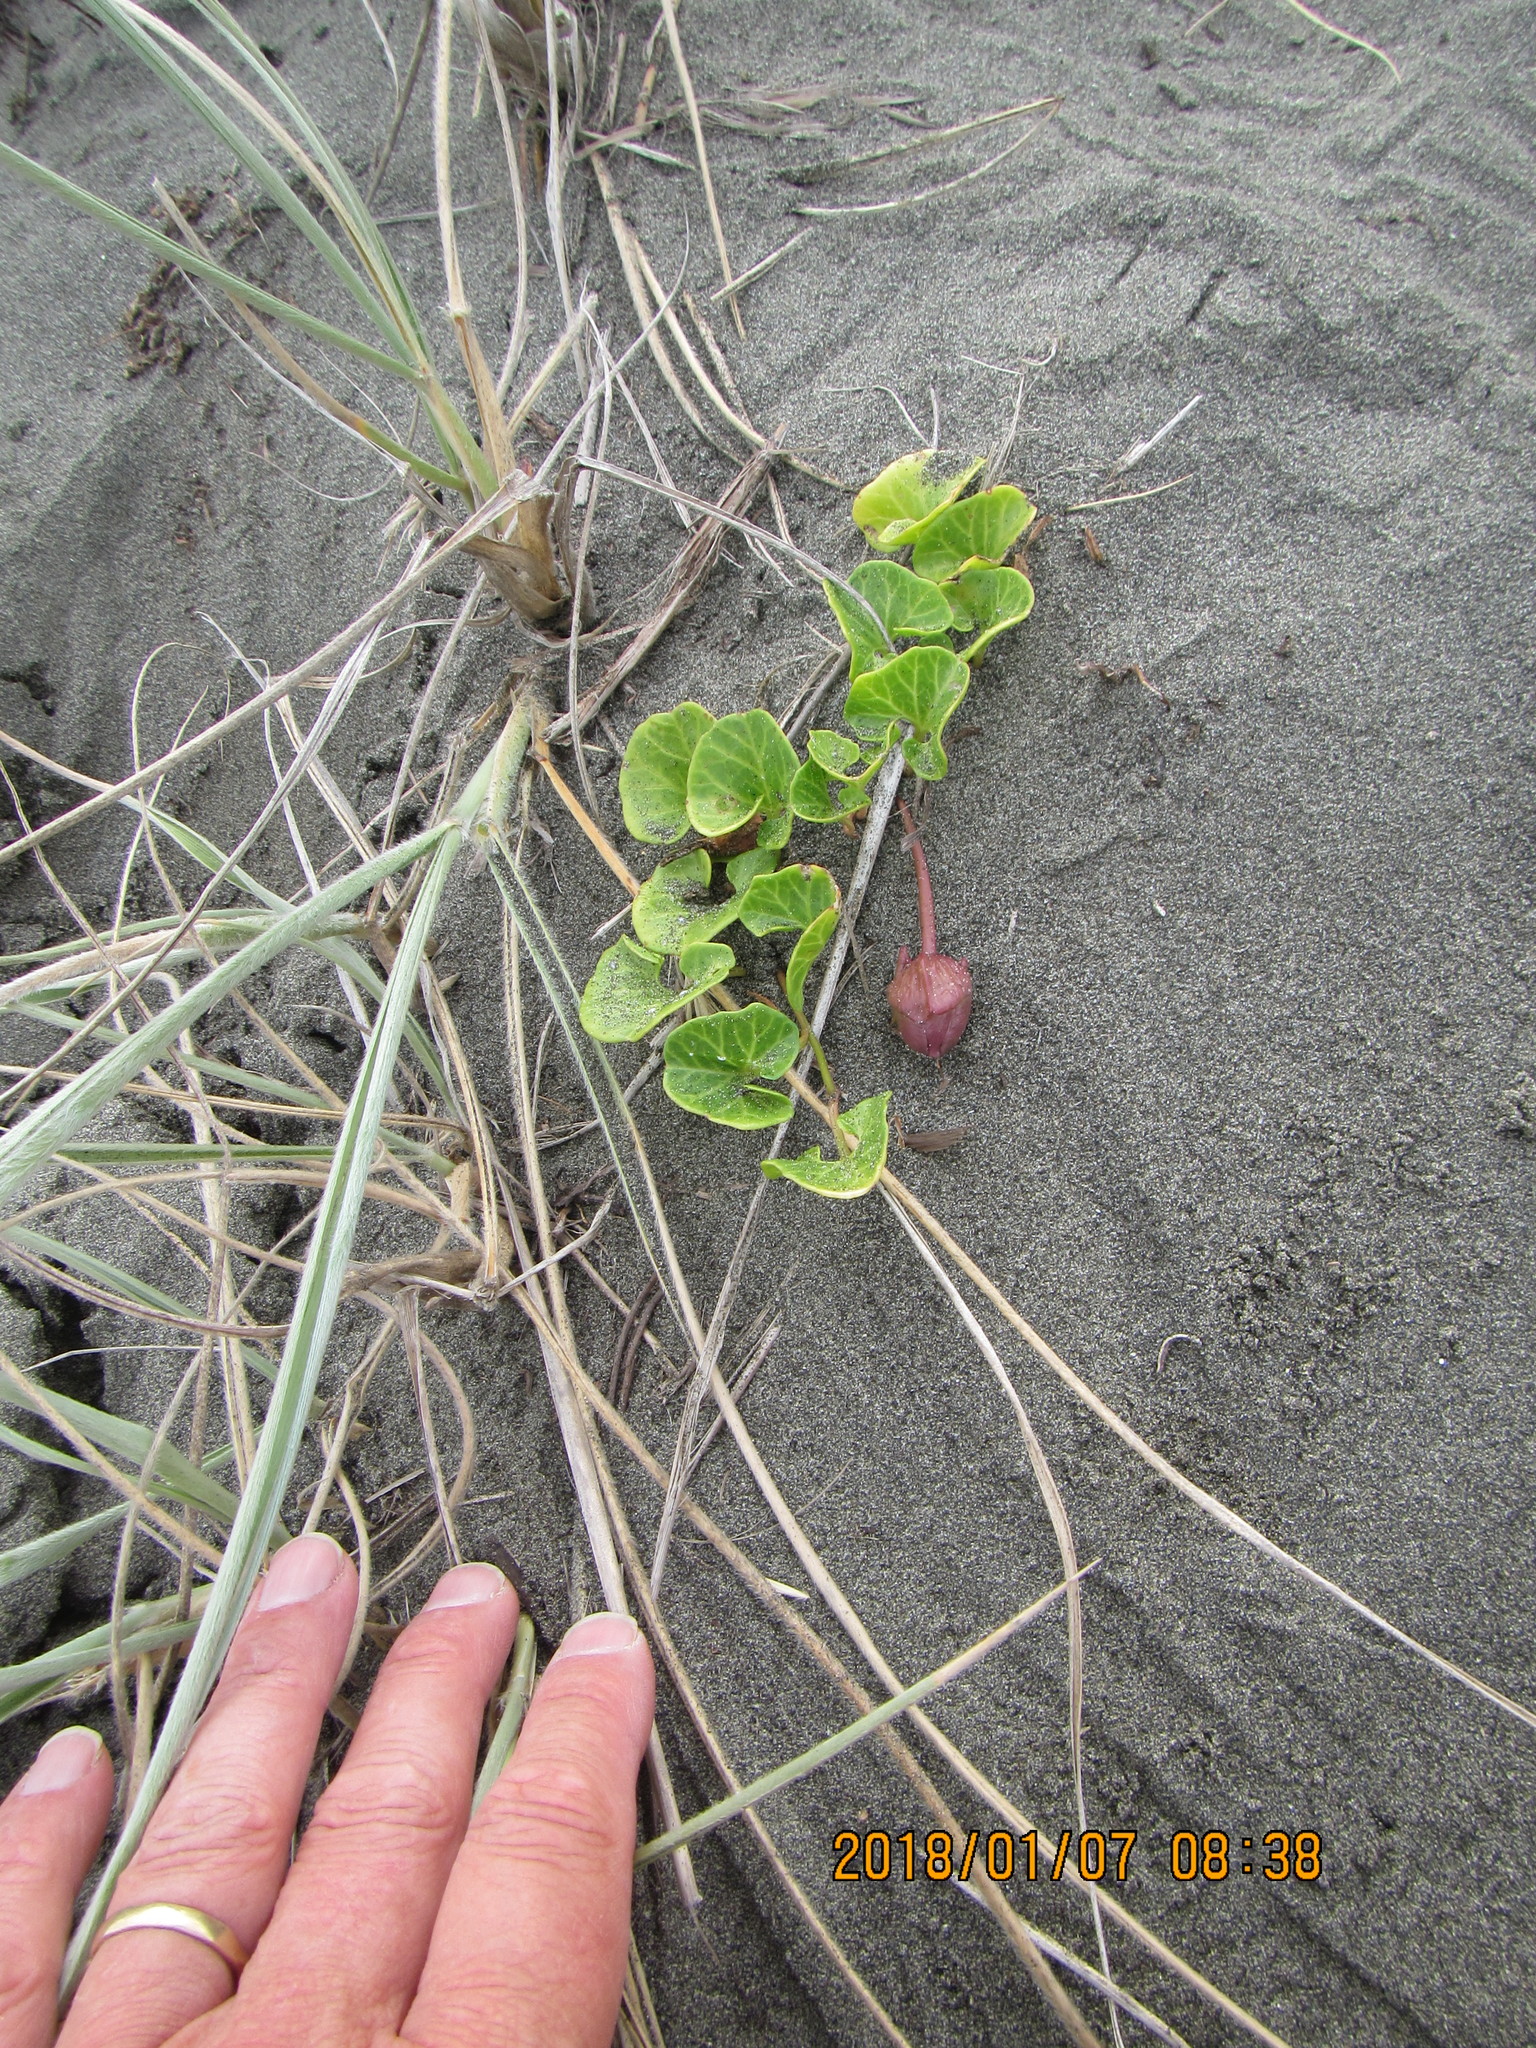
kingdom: Plantae
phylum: Tracheophyta
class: Magnoliopsida
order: Solanales
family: Convolvulaceae
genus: Calystegia
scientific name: Calystegia soldanella
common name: Sea bindweed
